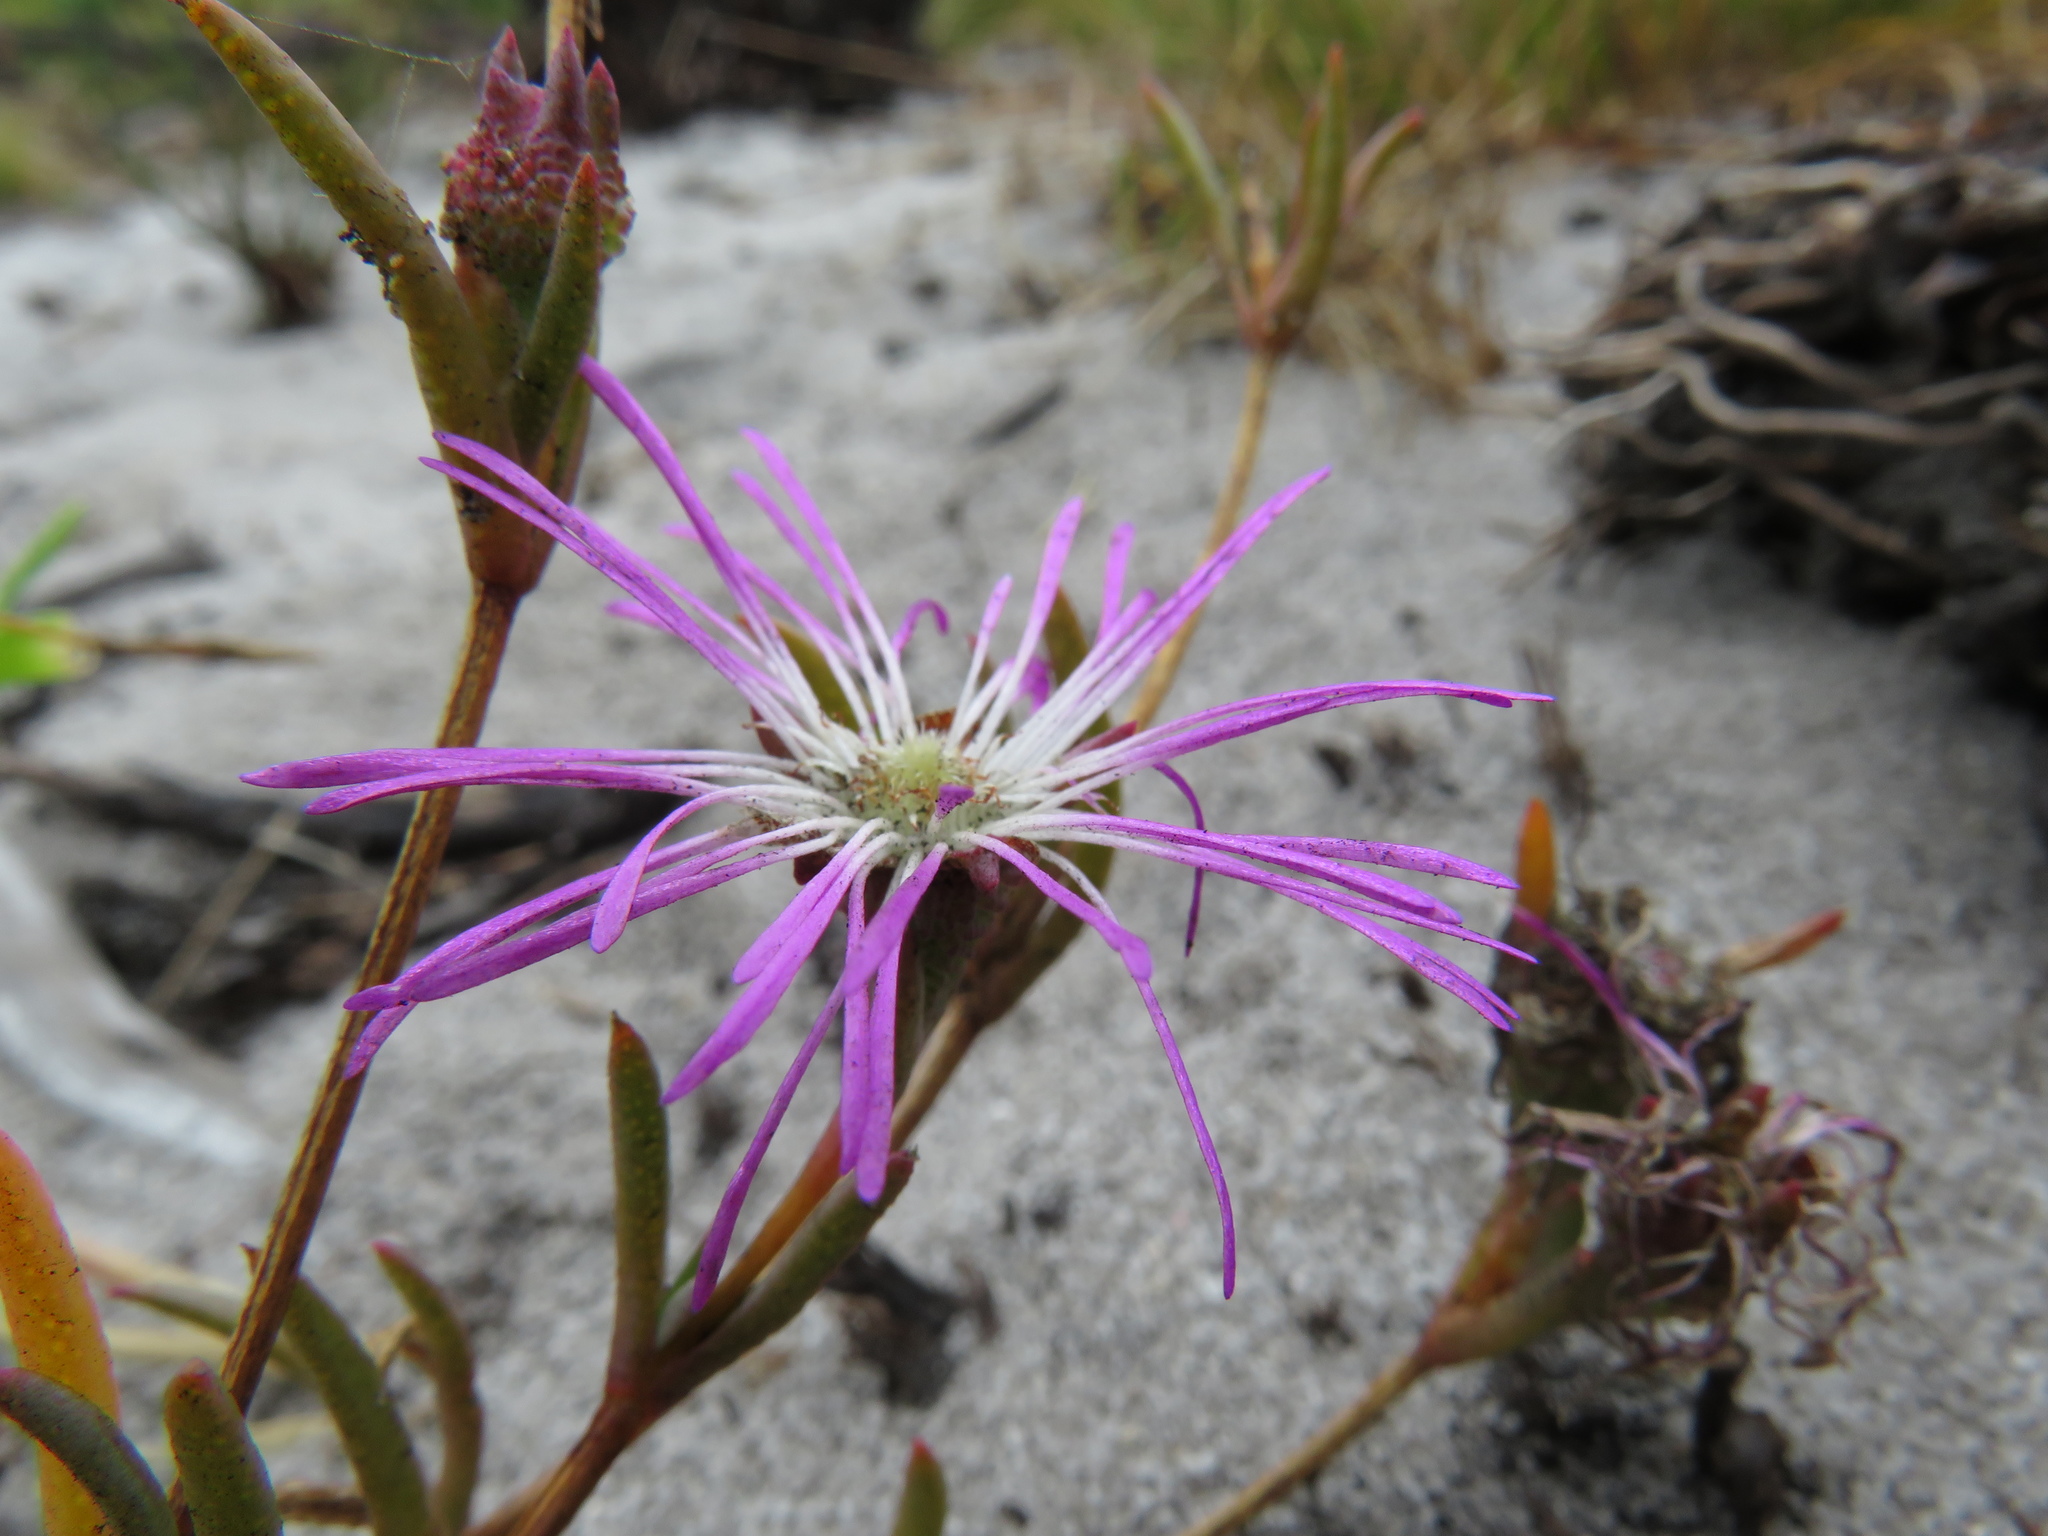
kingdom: Plantae
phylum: Tracheophyta
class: Magnoliopsida
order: Caryophyllales
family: Aizoaceae
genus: Erepsia
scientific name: Erepsia aspera
